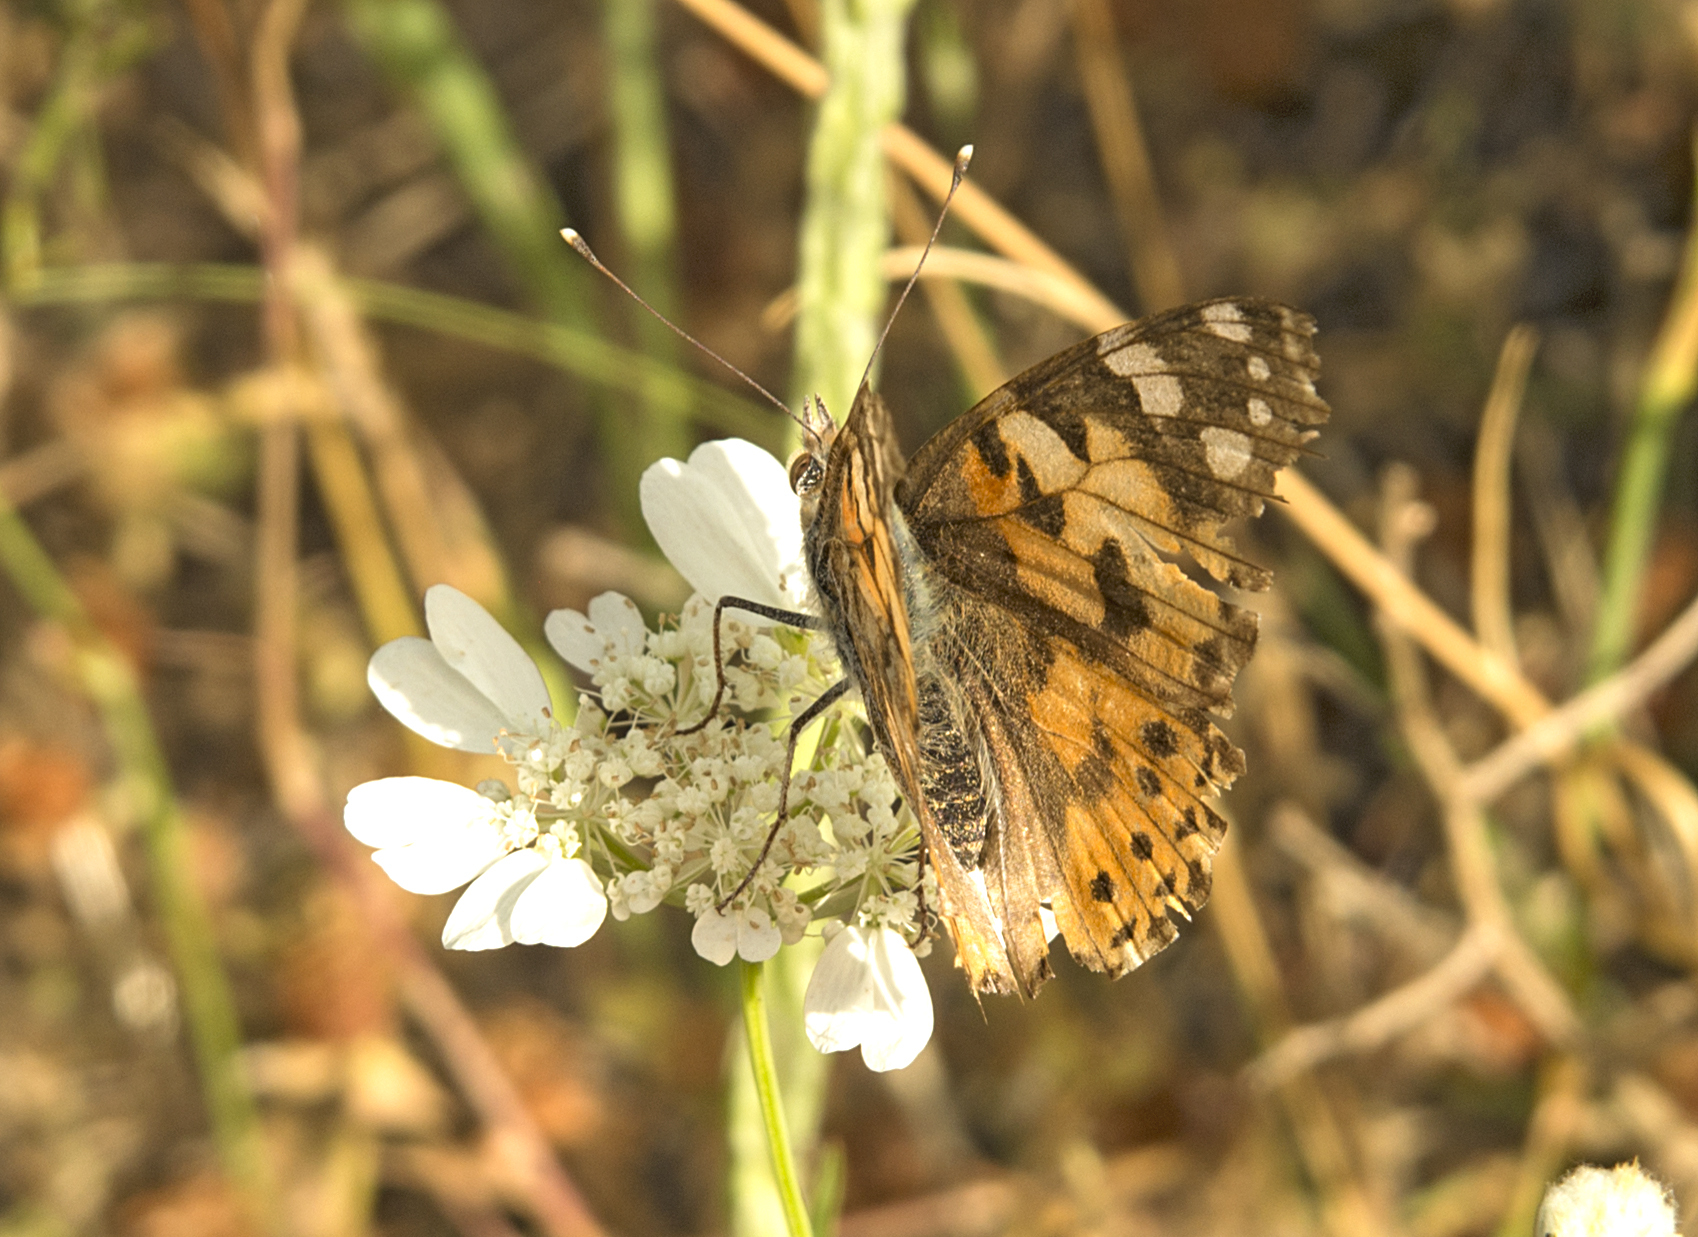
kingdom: Animalia
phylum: Arthropoda
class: Insecta
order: Lepidoptera
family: Nymphalidae
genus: Vanessa
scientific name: Vanessa cardui
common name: Painted lady
